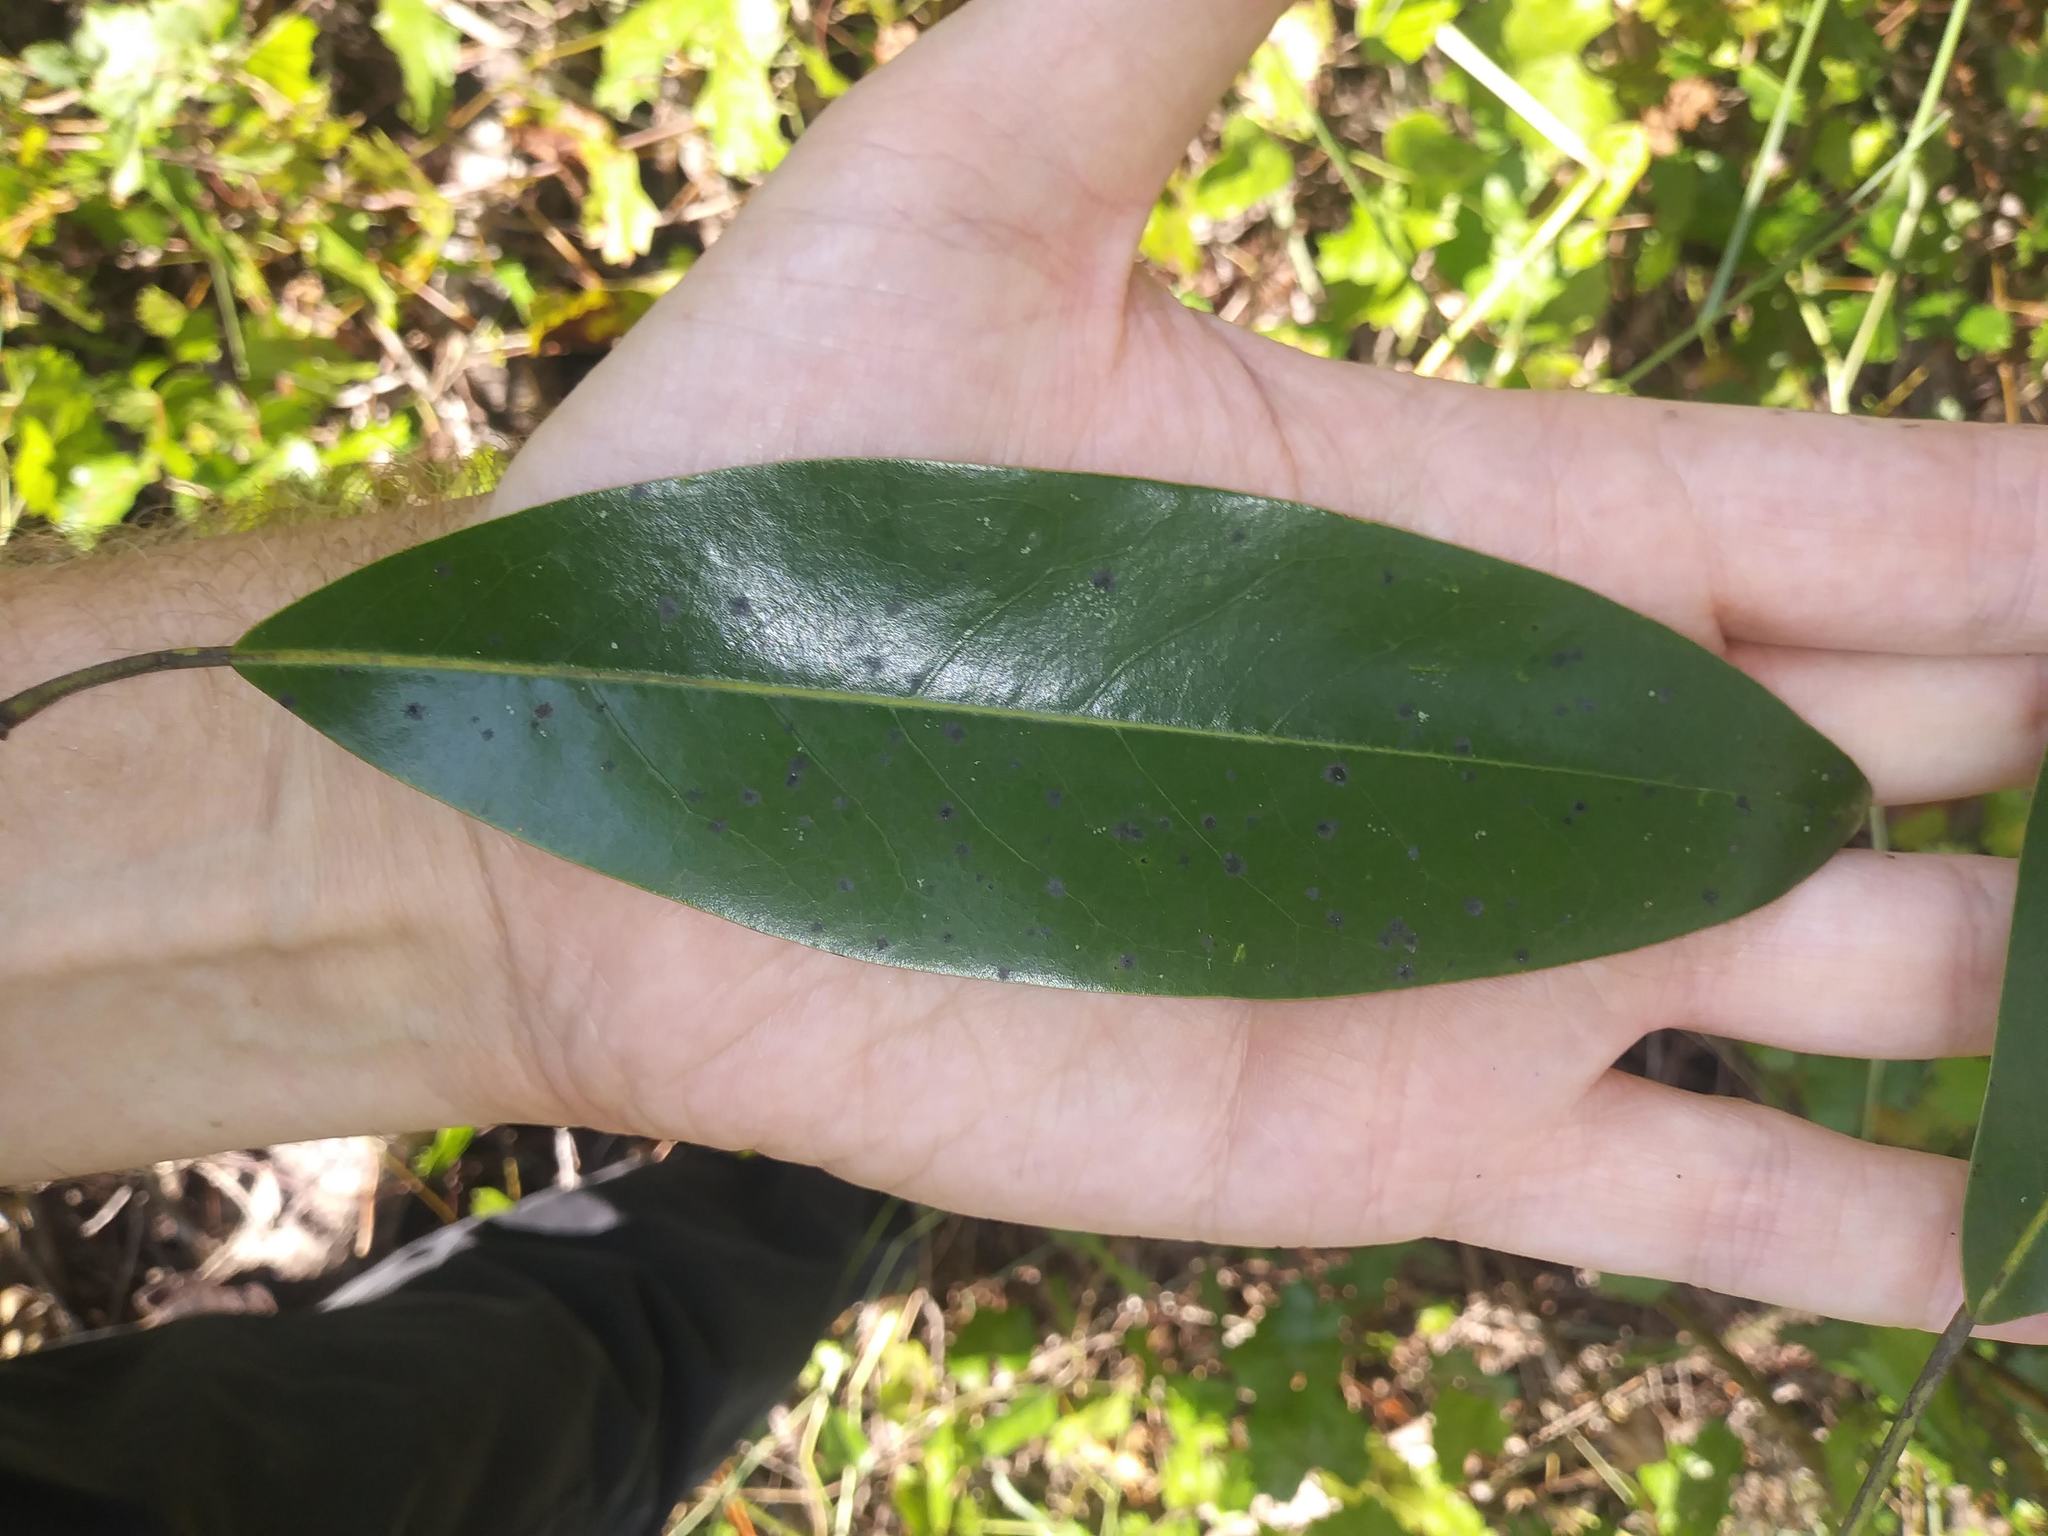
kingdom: Plantae
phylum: Tracheophyta
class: Magnoliopsida
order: Magnoliales
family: Magnoliaceae
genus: Magnolia
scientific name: Magnolia virginiana
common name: Swamp bay
